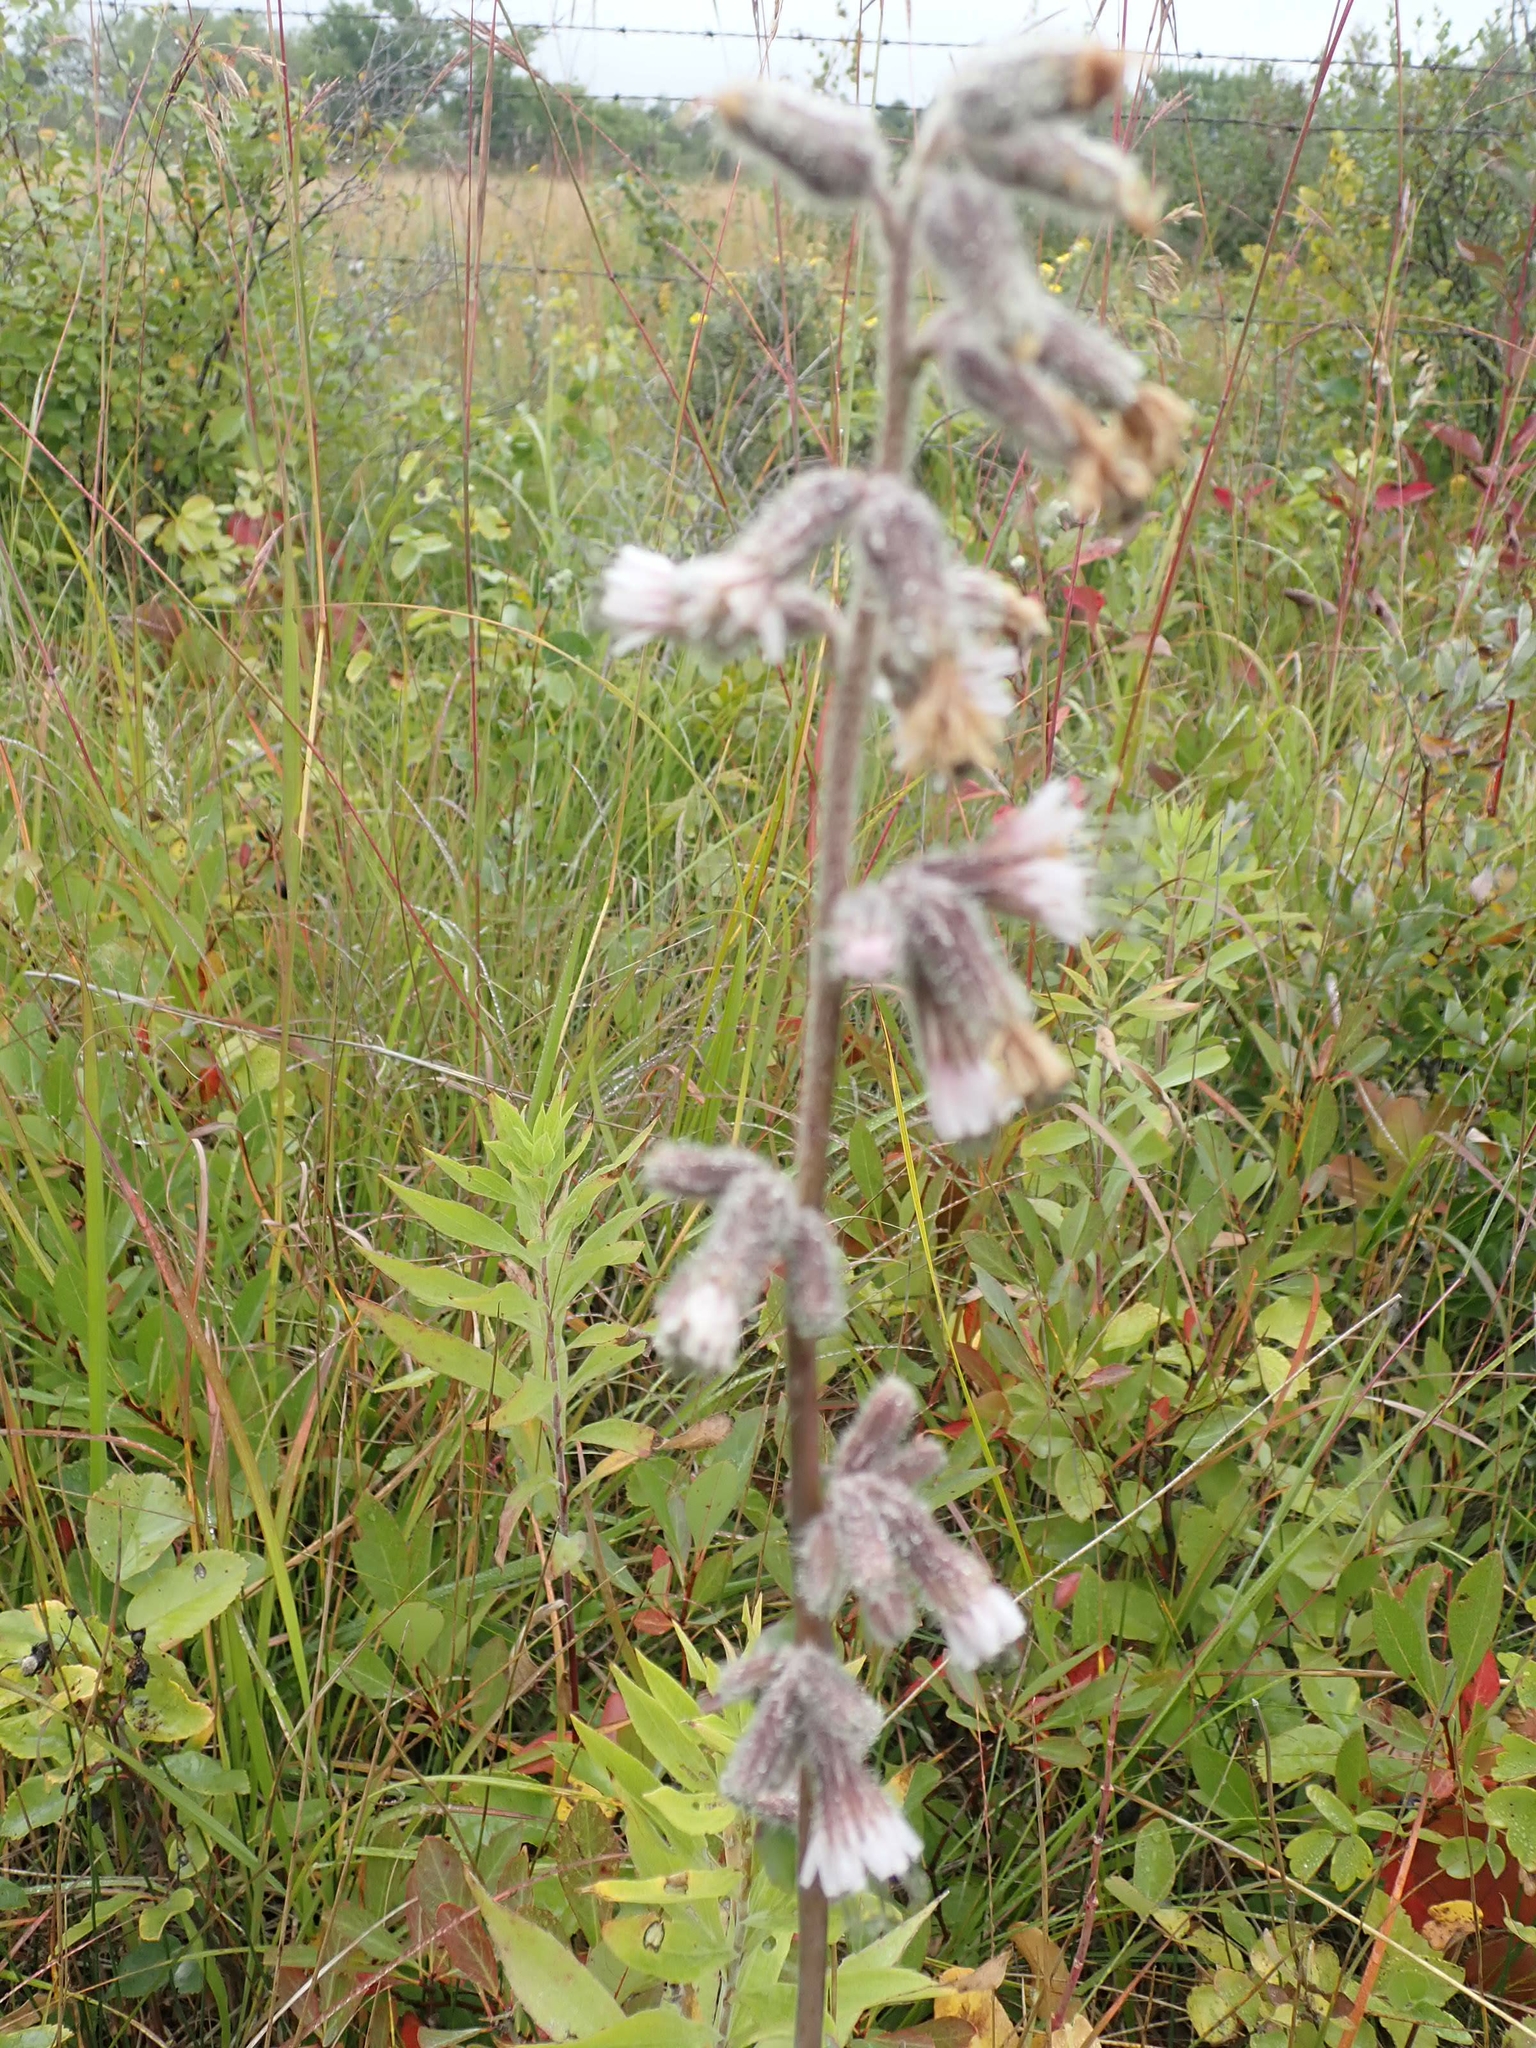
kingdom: Plantae
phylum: Tracheophyta
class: Magnoliopsida
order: Asterales
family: Asteraceae
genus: Nabalus
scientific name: Nabalus racemosus
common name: Glaucous white lettuce
